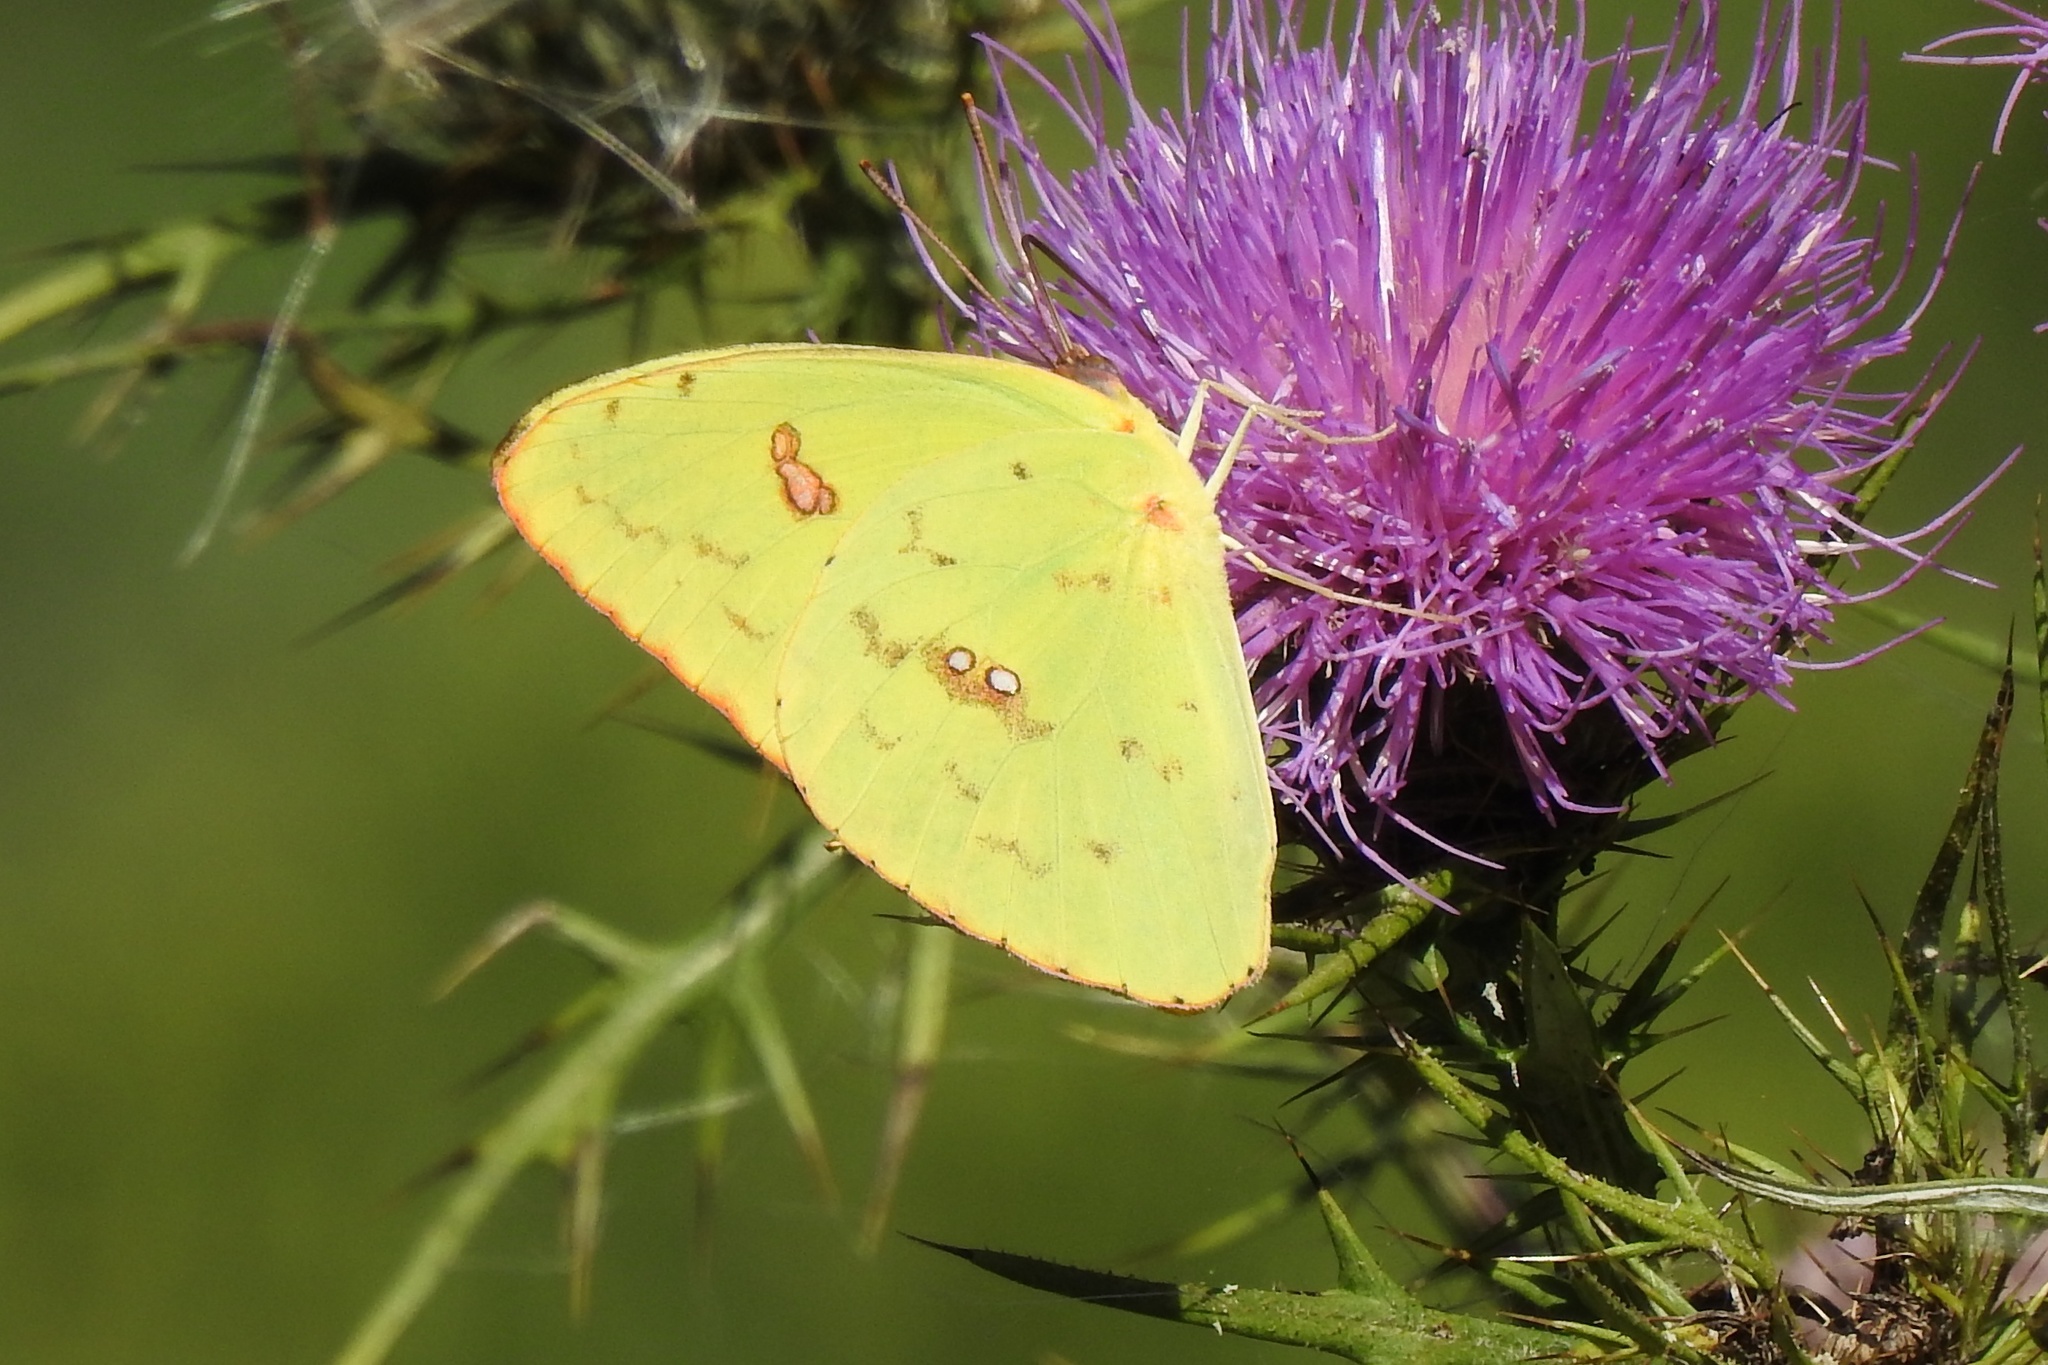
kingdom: Animalia
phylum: Arthropoda
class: Insecta
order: Lepidoptera
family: Pieridae
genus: Phoebis
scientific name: Phoebis sennae
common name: Cloudless sulphur
